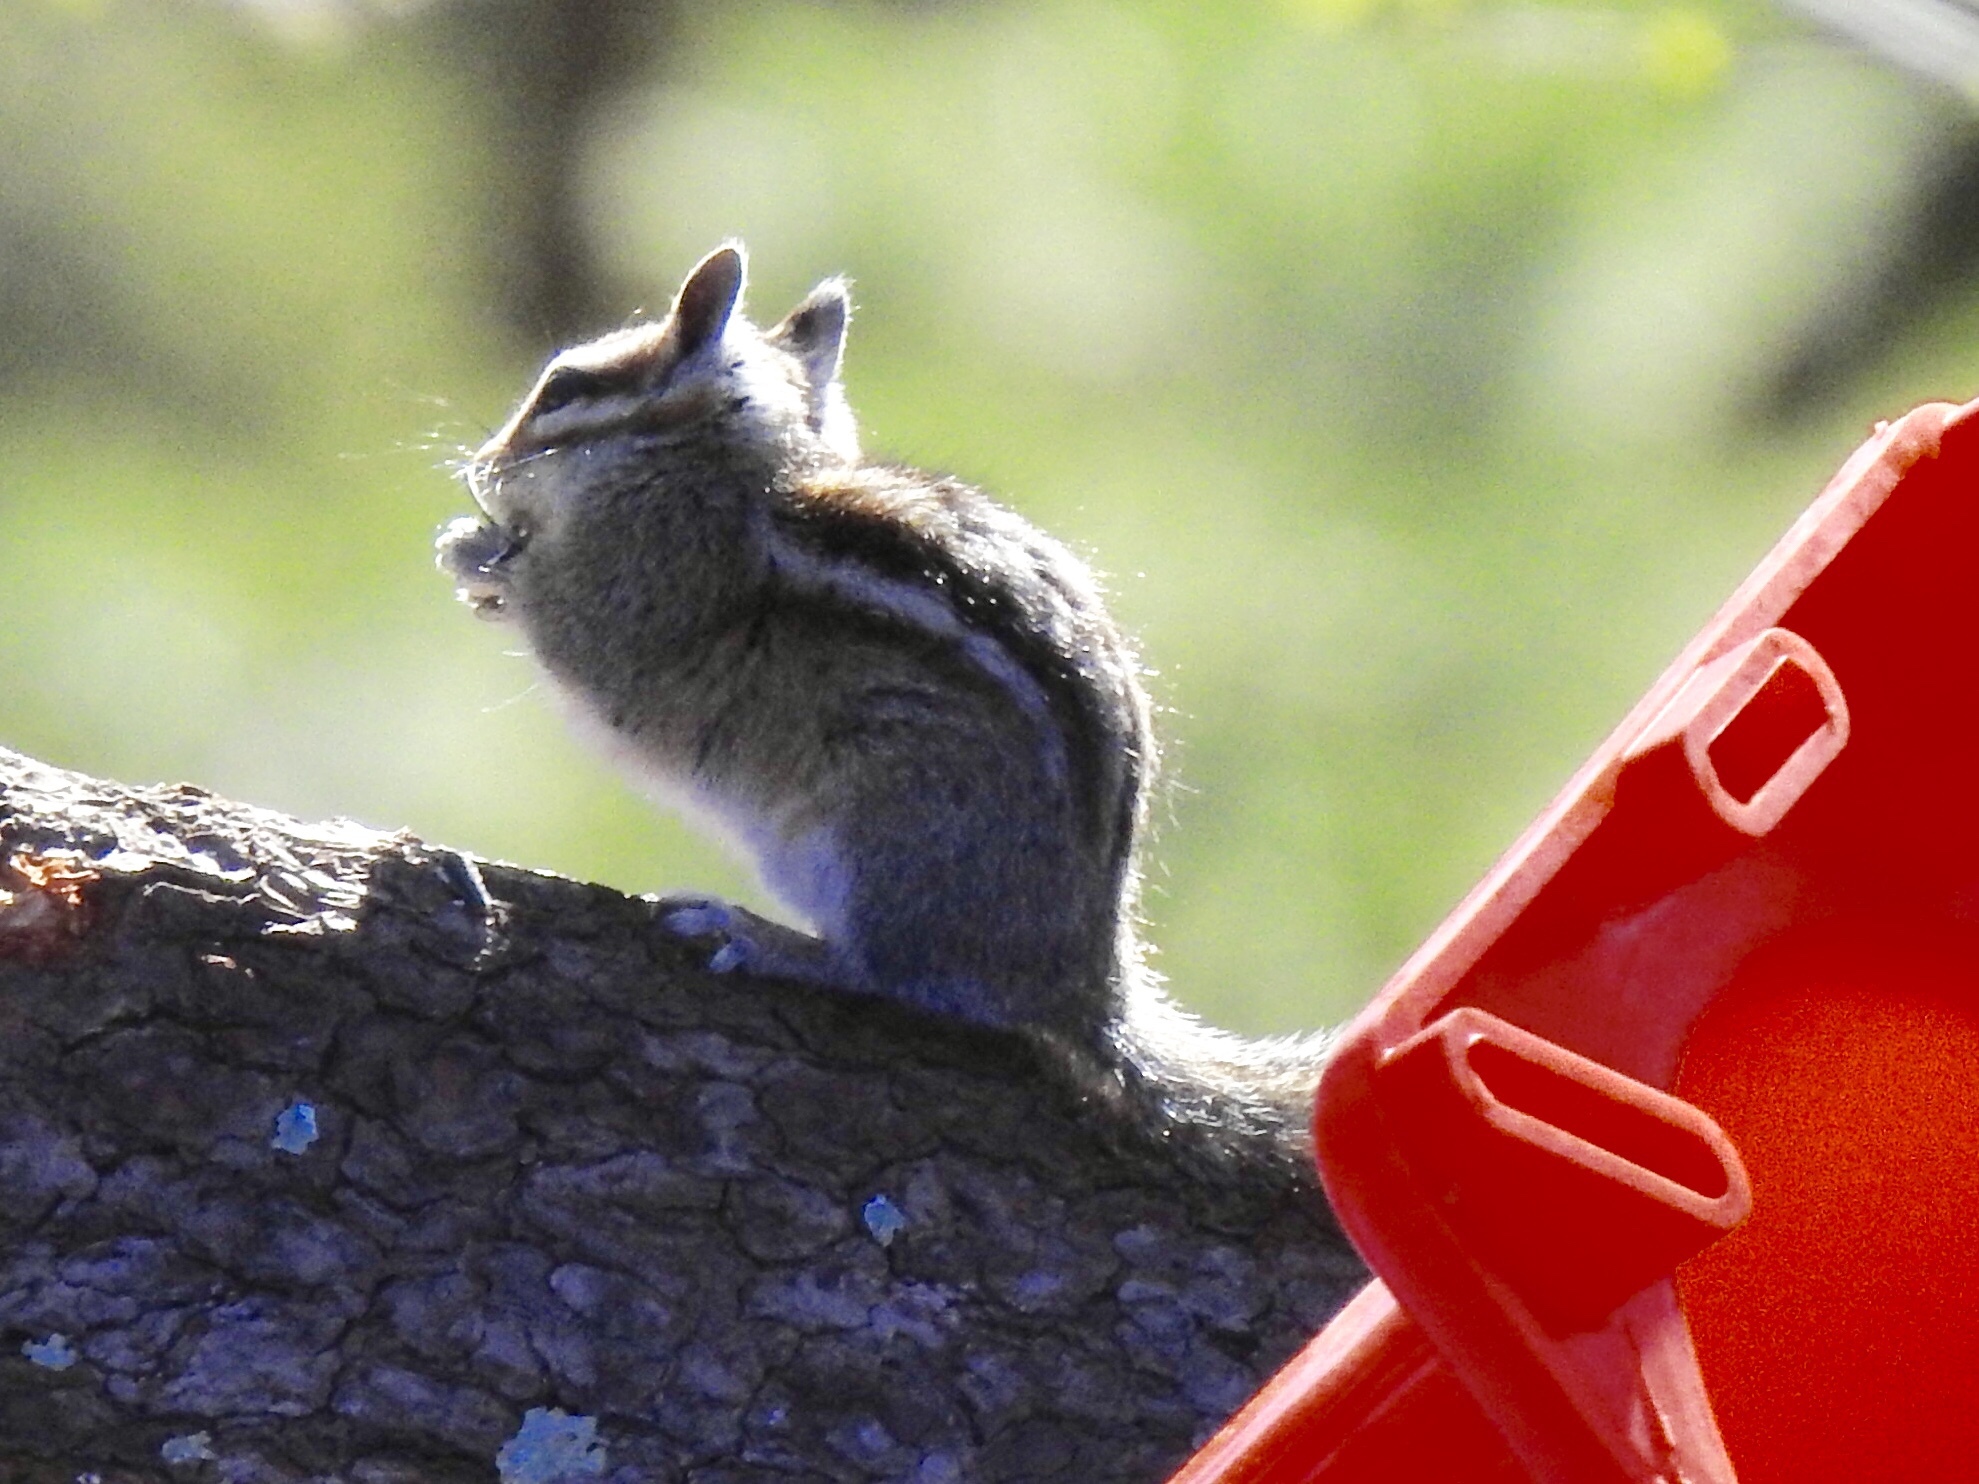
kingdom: Animalia
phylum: Chordata
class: Mammalia
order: Rodentia
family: Sciuridae
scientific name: Sciuridae
